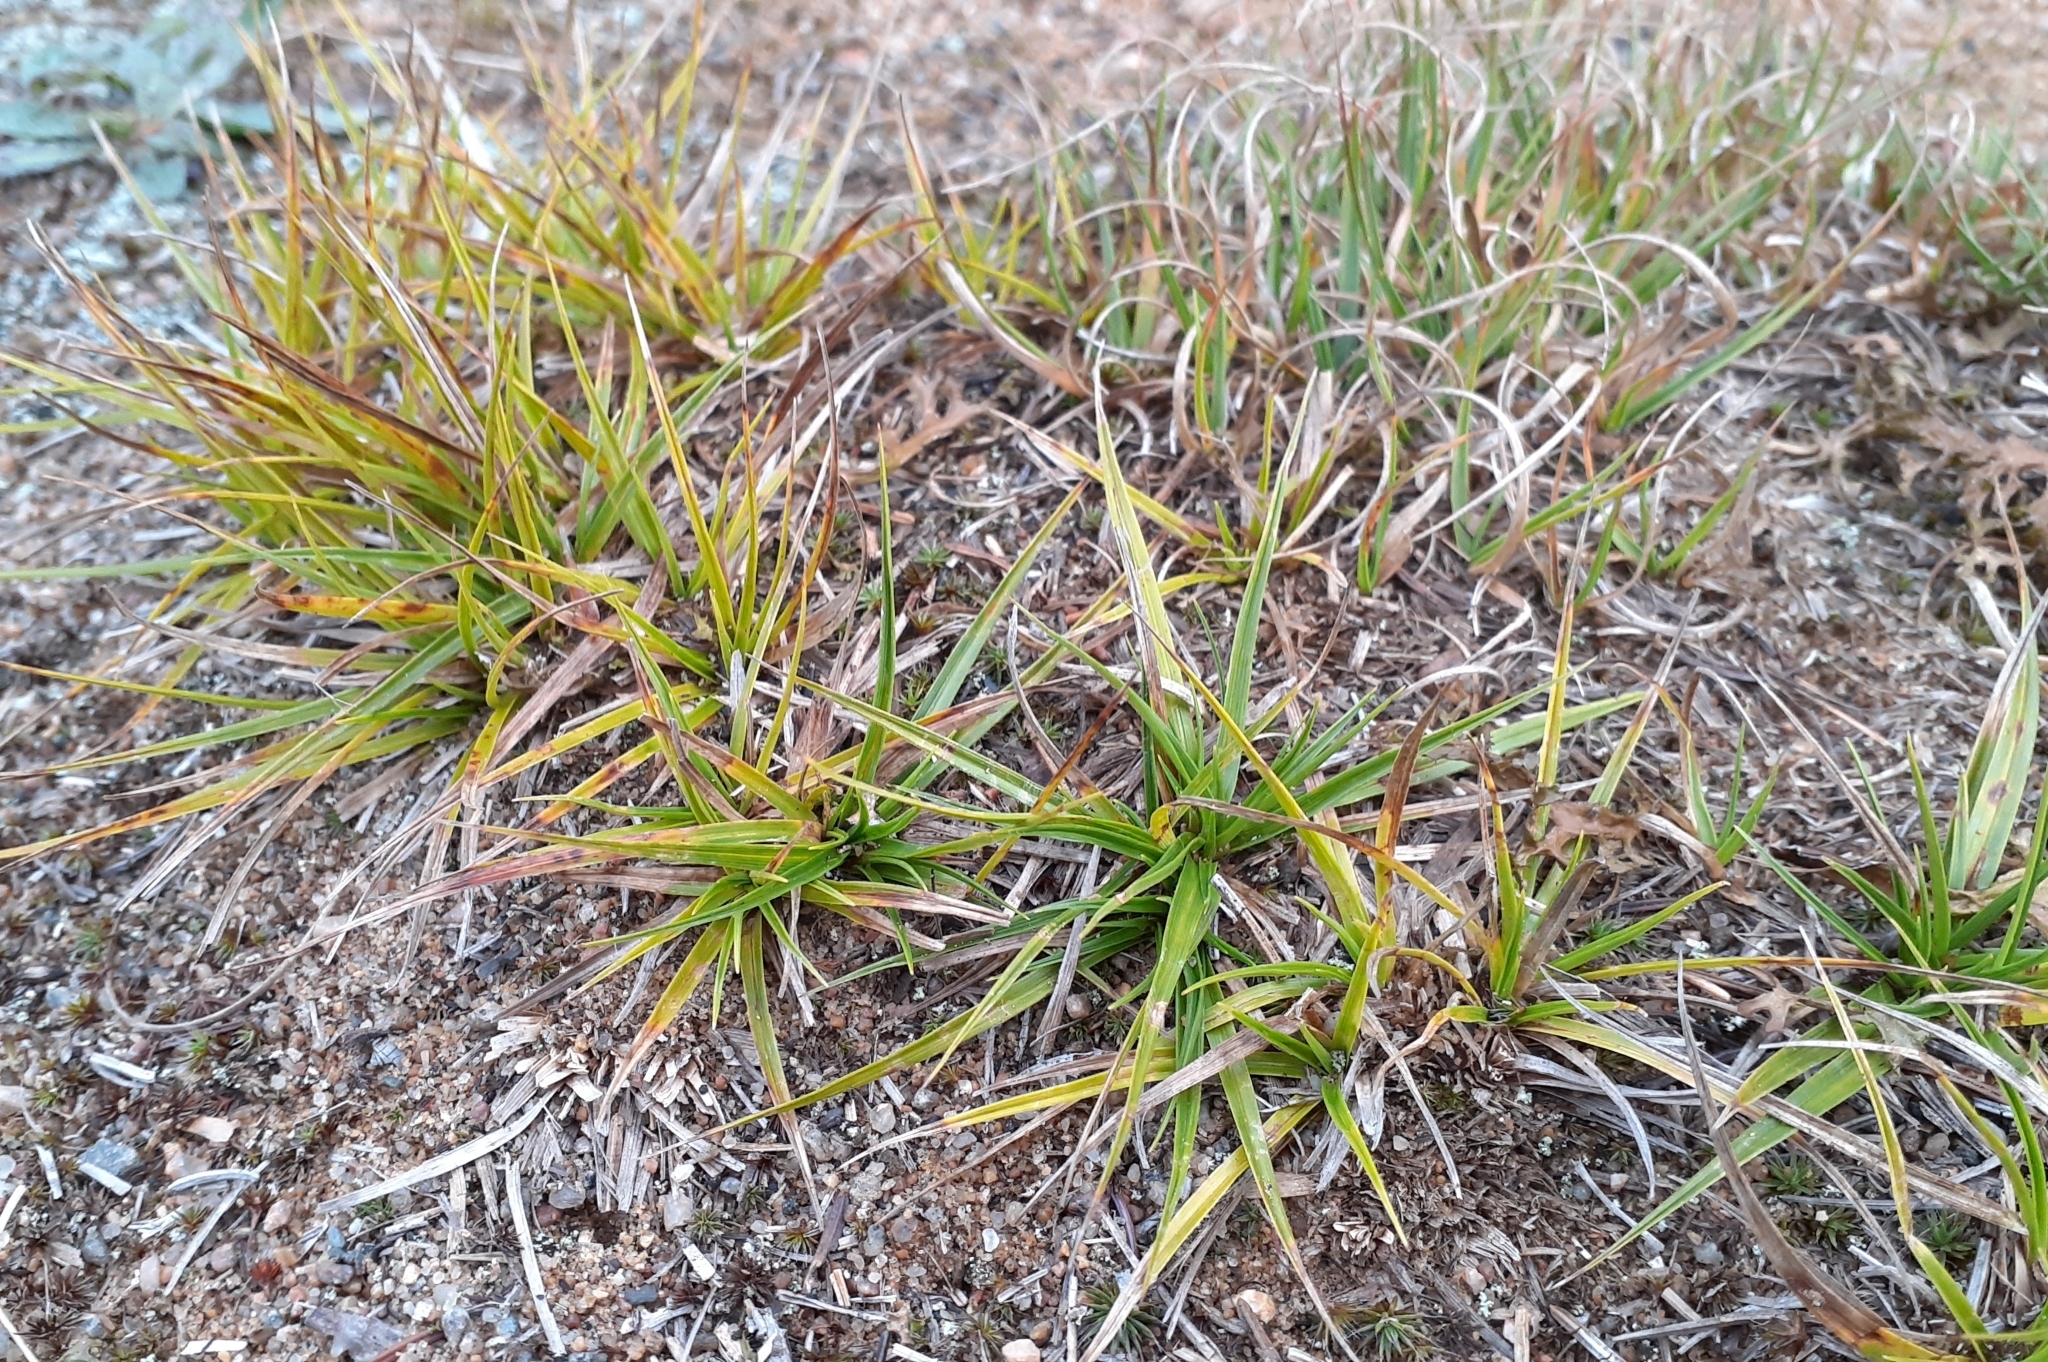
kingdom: Plantae
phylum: Tracheophyta
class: Liliopsida
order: Poales
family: Cyperaceae
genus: Carex
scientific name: Carex tonsa
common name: Bald sedge
